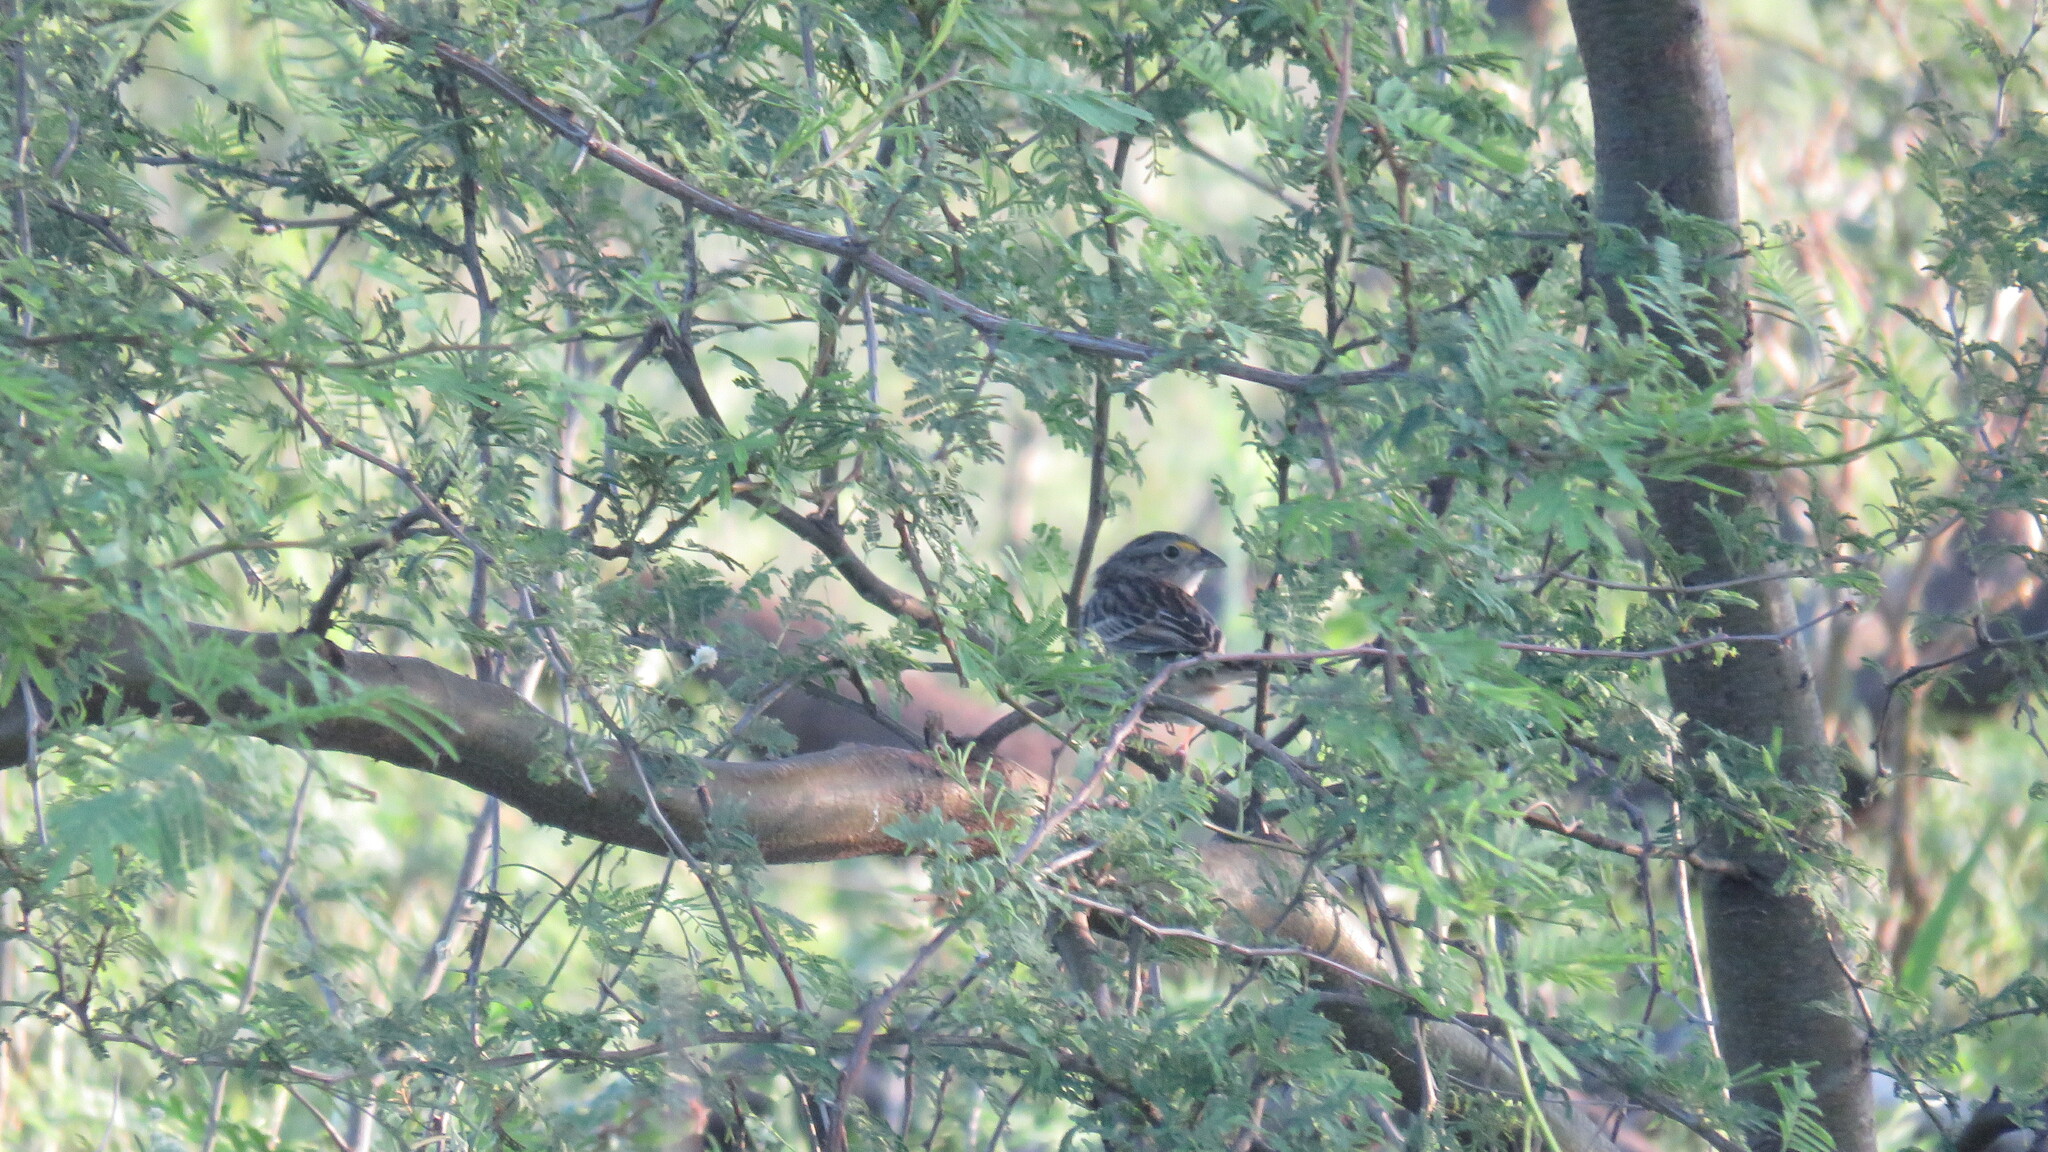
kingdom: Animalia
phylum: Chordata
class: Aves
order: Passeriformes
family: Passerellidae
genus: Ammodramus
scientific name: Ammodramus humeralis
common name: Grassland sparrow
